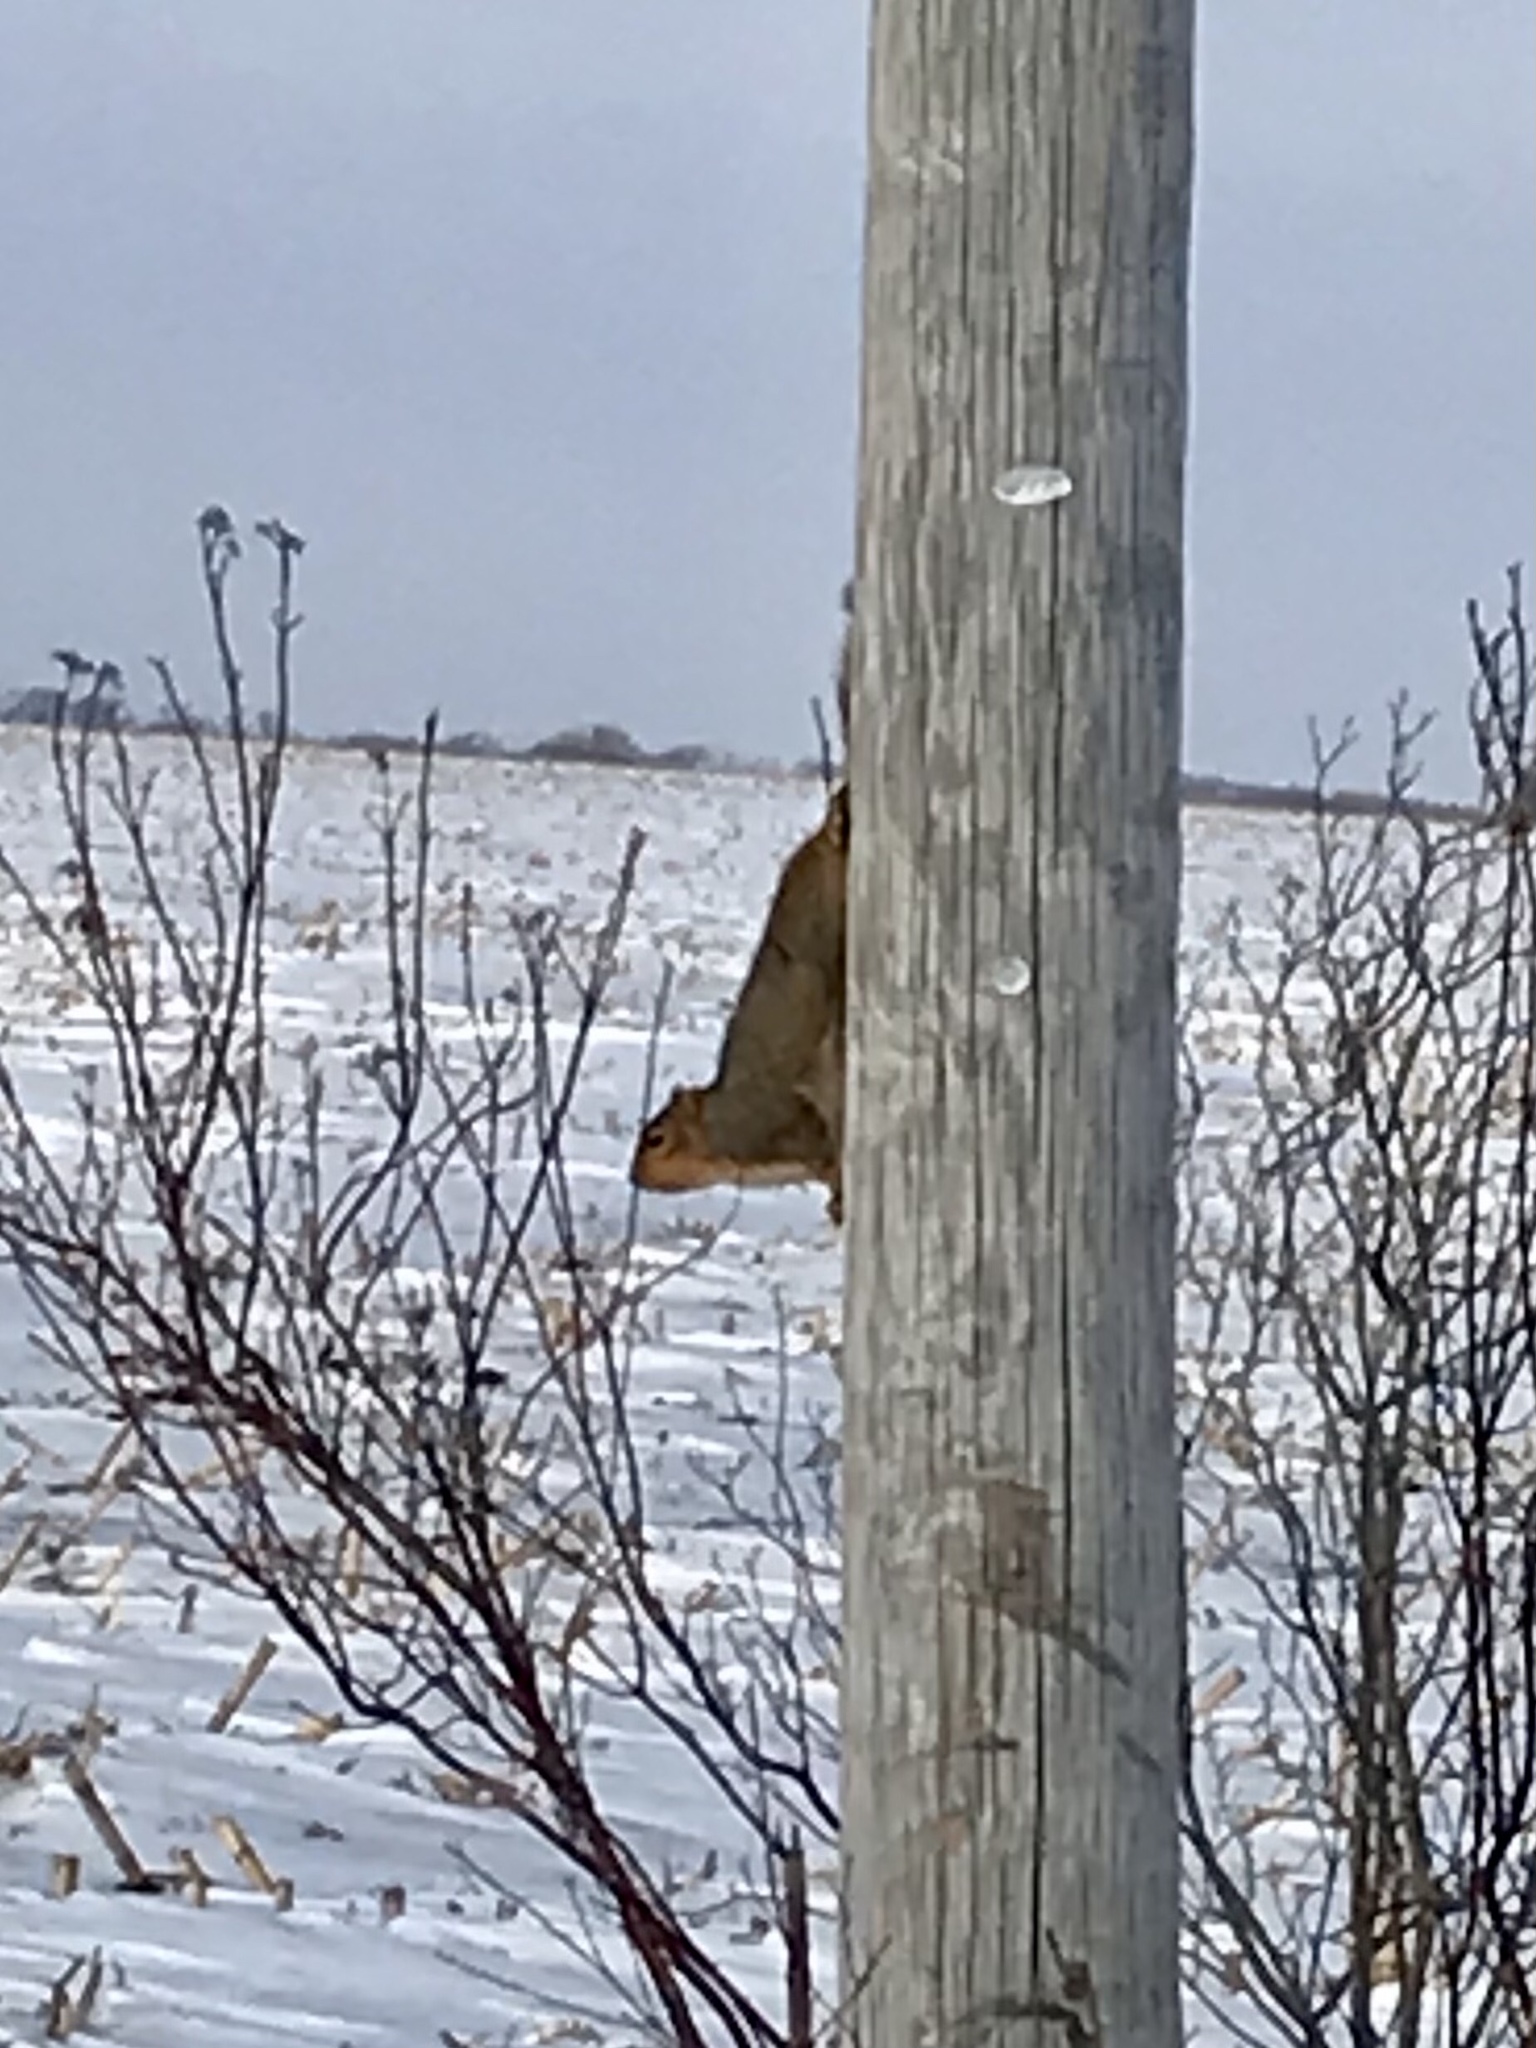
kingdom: Animalia
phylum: Chordata
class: Mammalia
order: Rodentia
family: Sciuridae
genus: Sciurus
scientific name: Sciurus niger
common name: Fox squirrel
